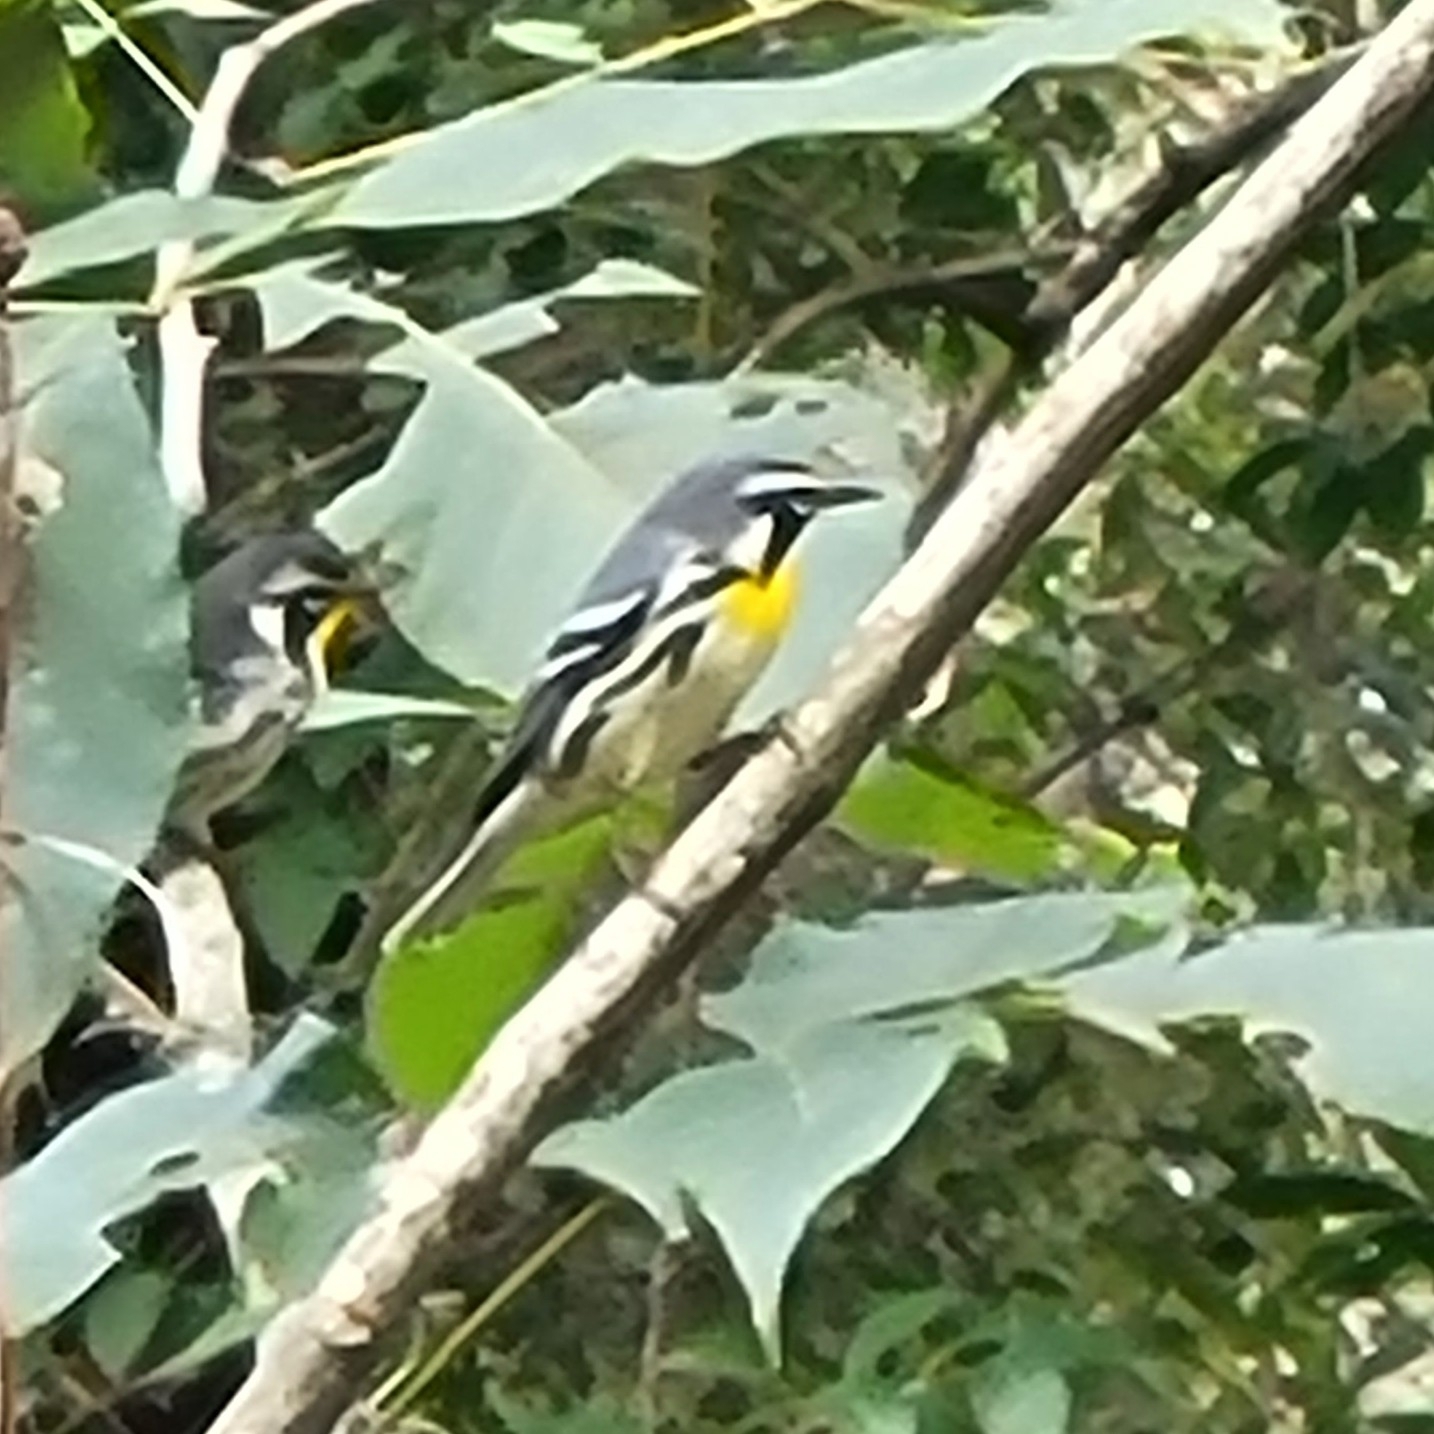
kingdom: Animalia
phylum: Chordata
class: Aves
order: Passeriformes
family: Parulidae
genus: Setophaga
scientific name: Setophaga dominica
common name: Yellow-throated warbler
